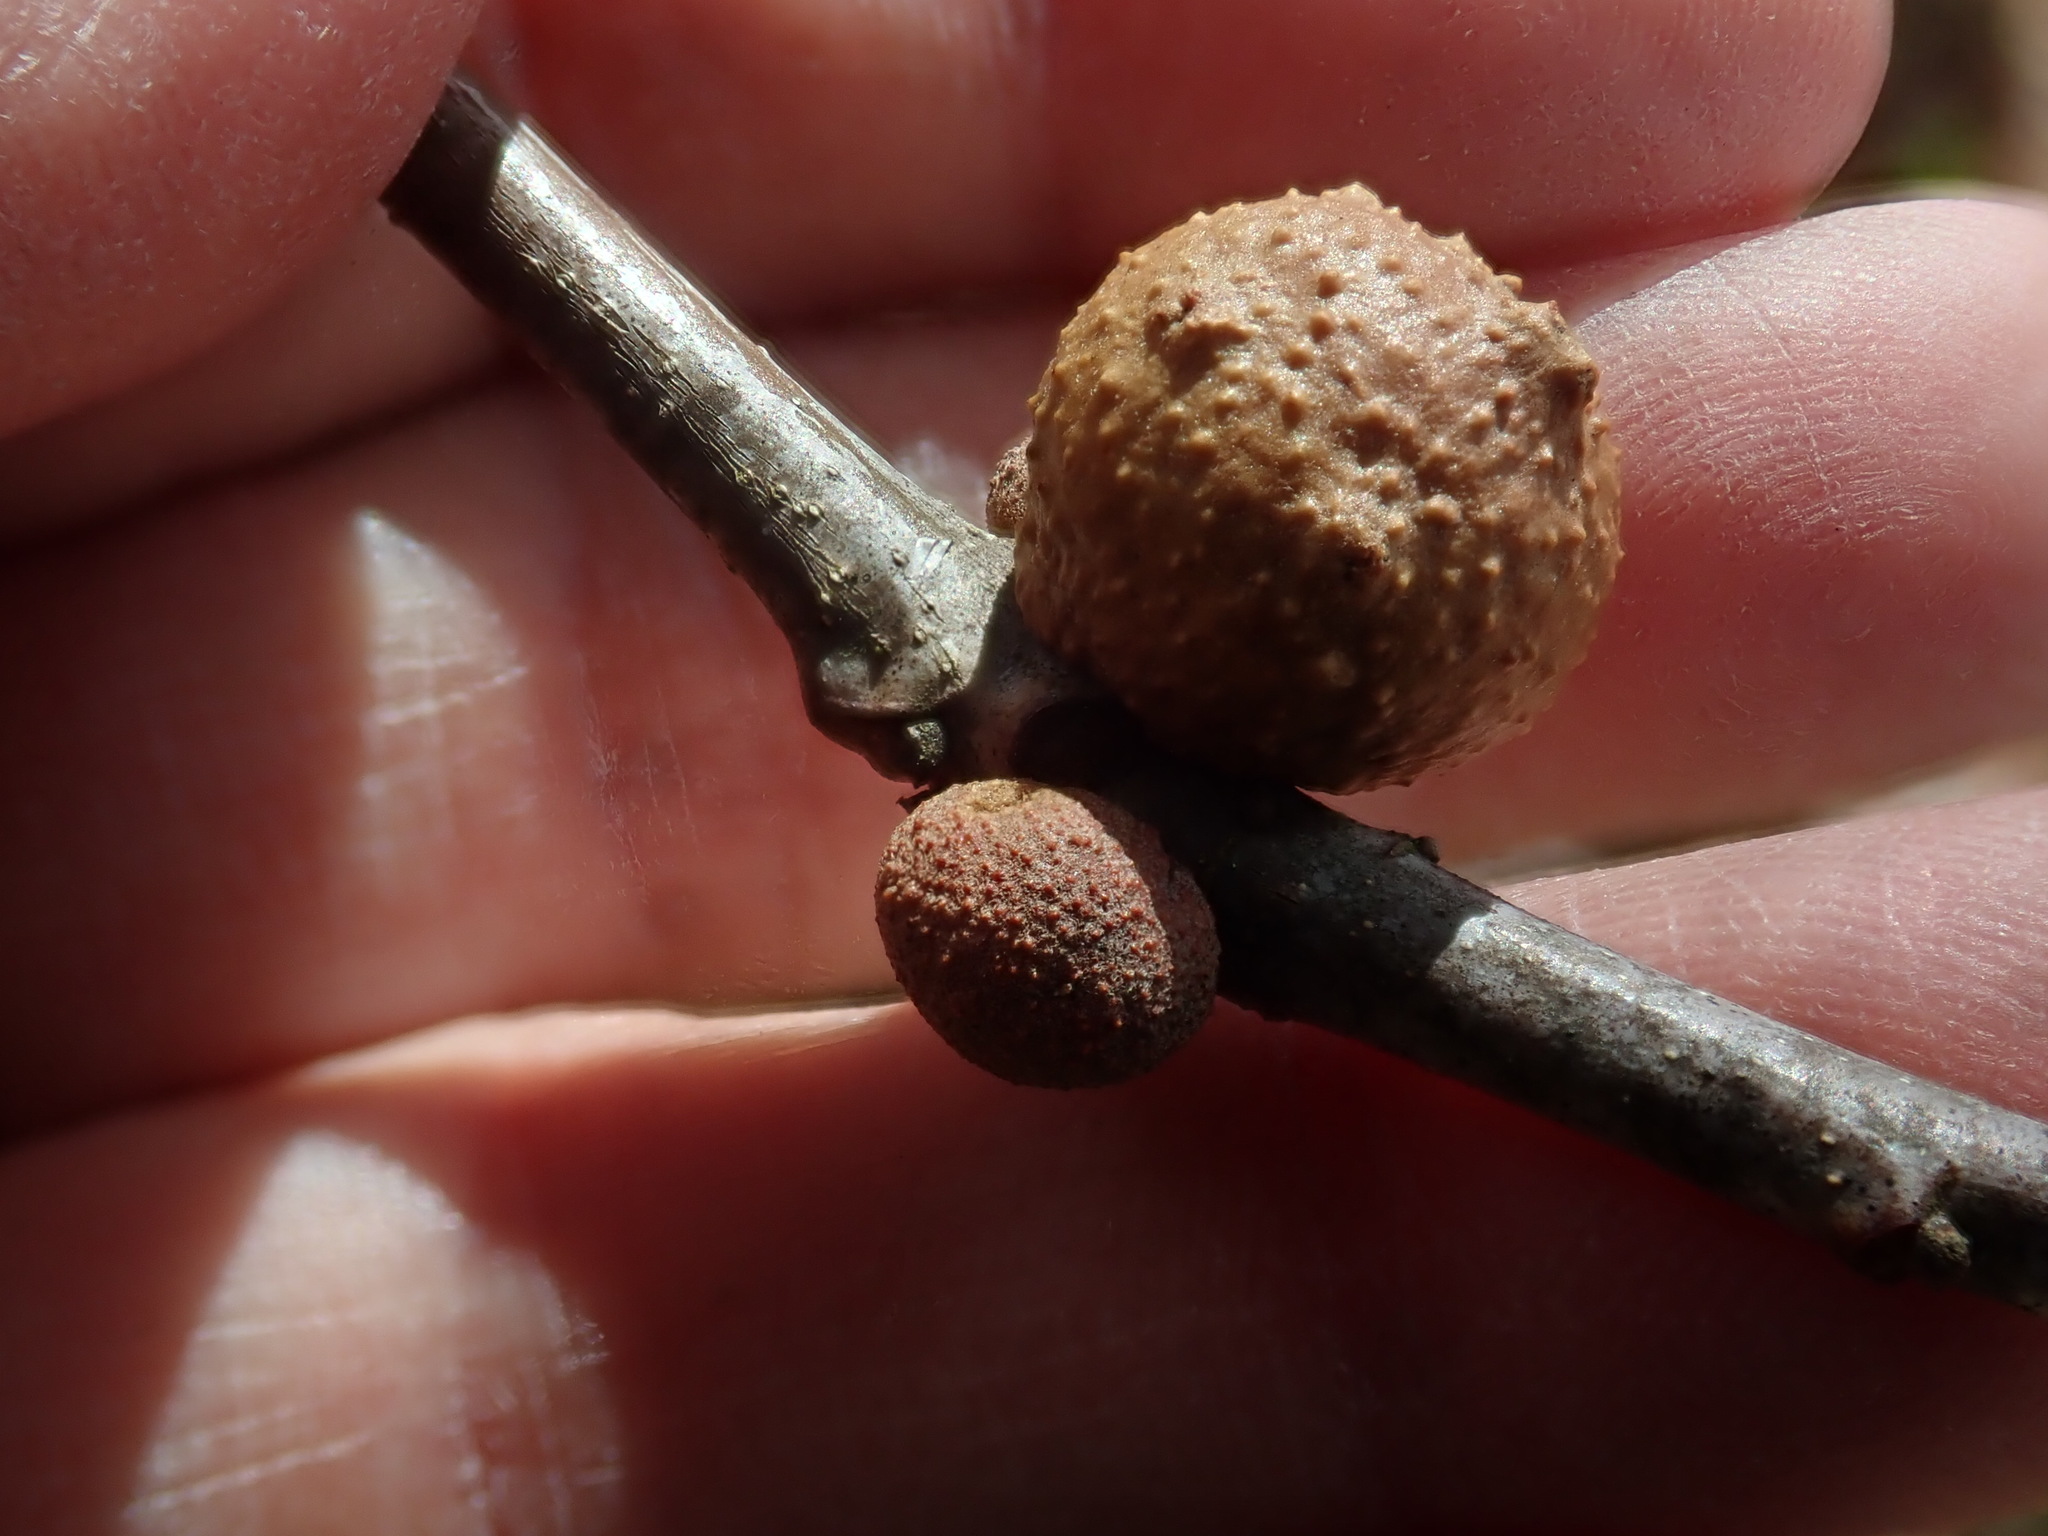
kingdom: Animalia
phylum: Arthropoda
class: Insecta
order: Hymenoptera
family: Cynipidae
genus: Disholcaspis
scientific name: Disholcaspis quercusglobulus
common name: Round bullet gall wasp
